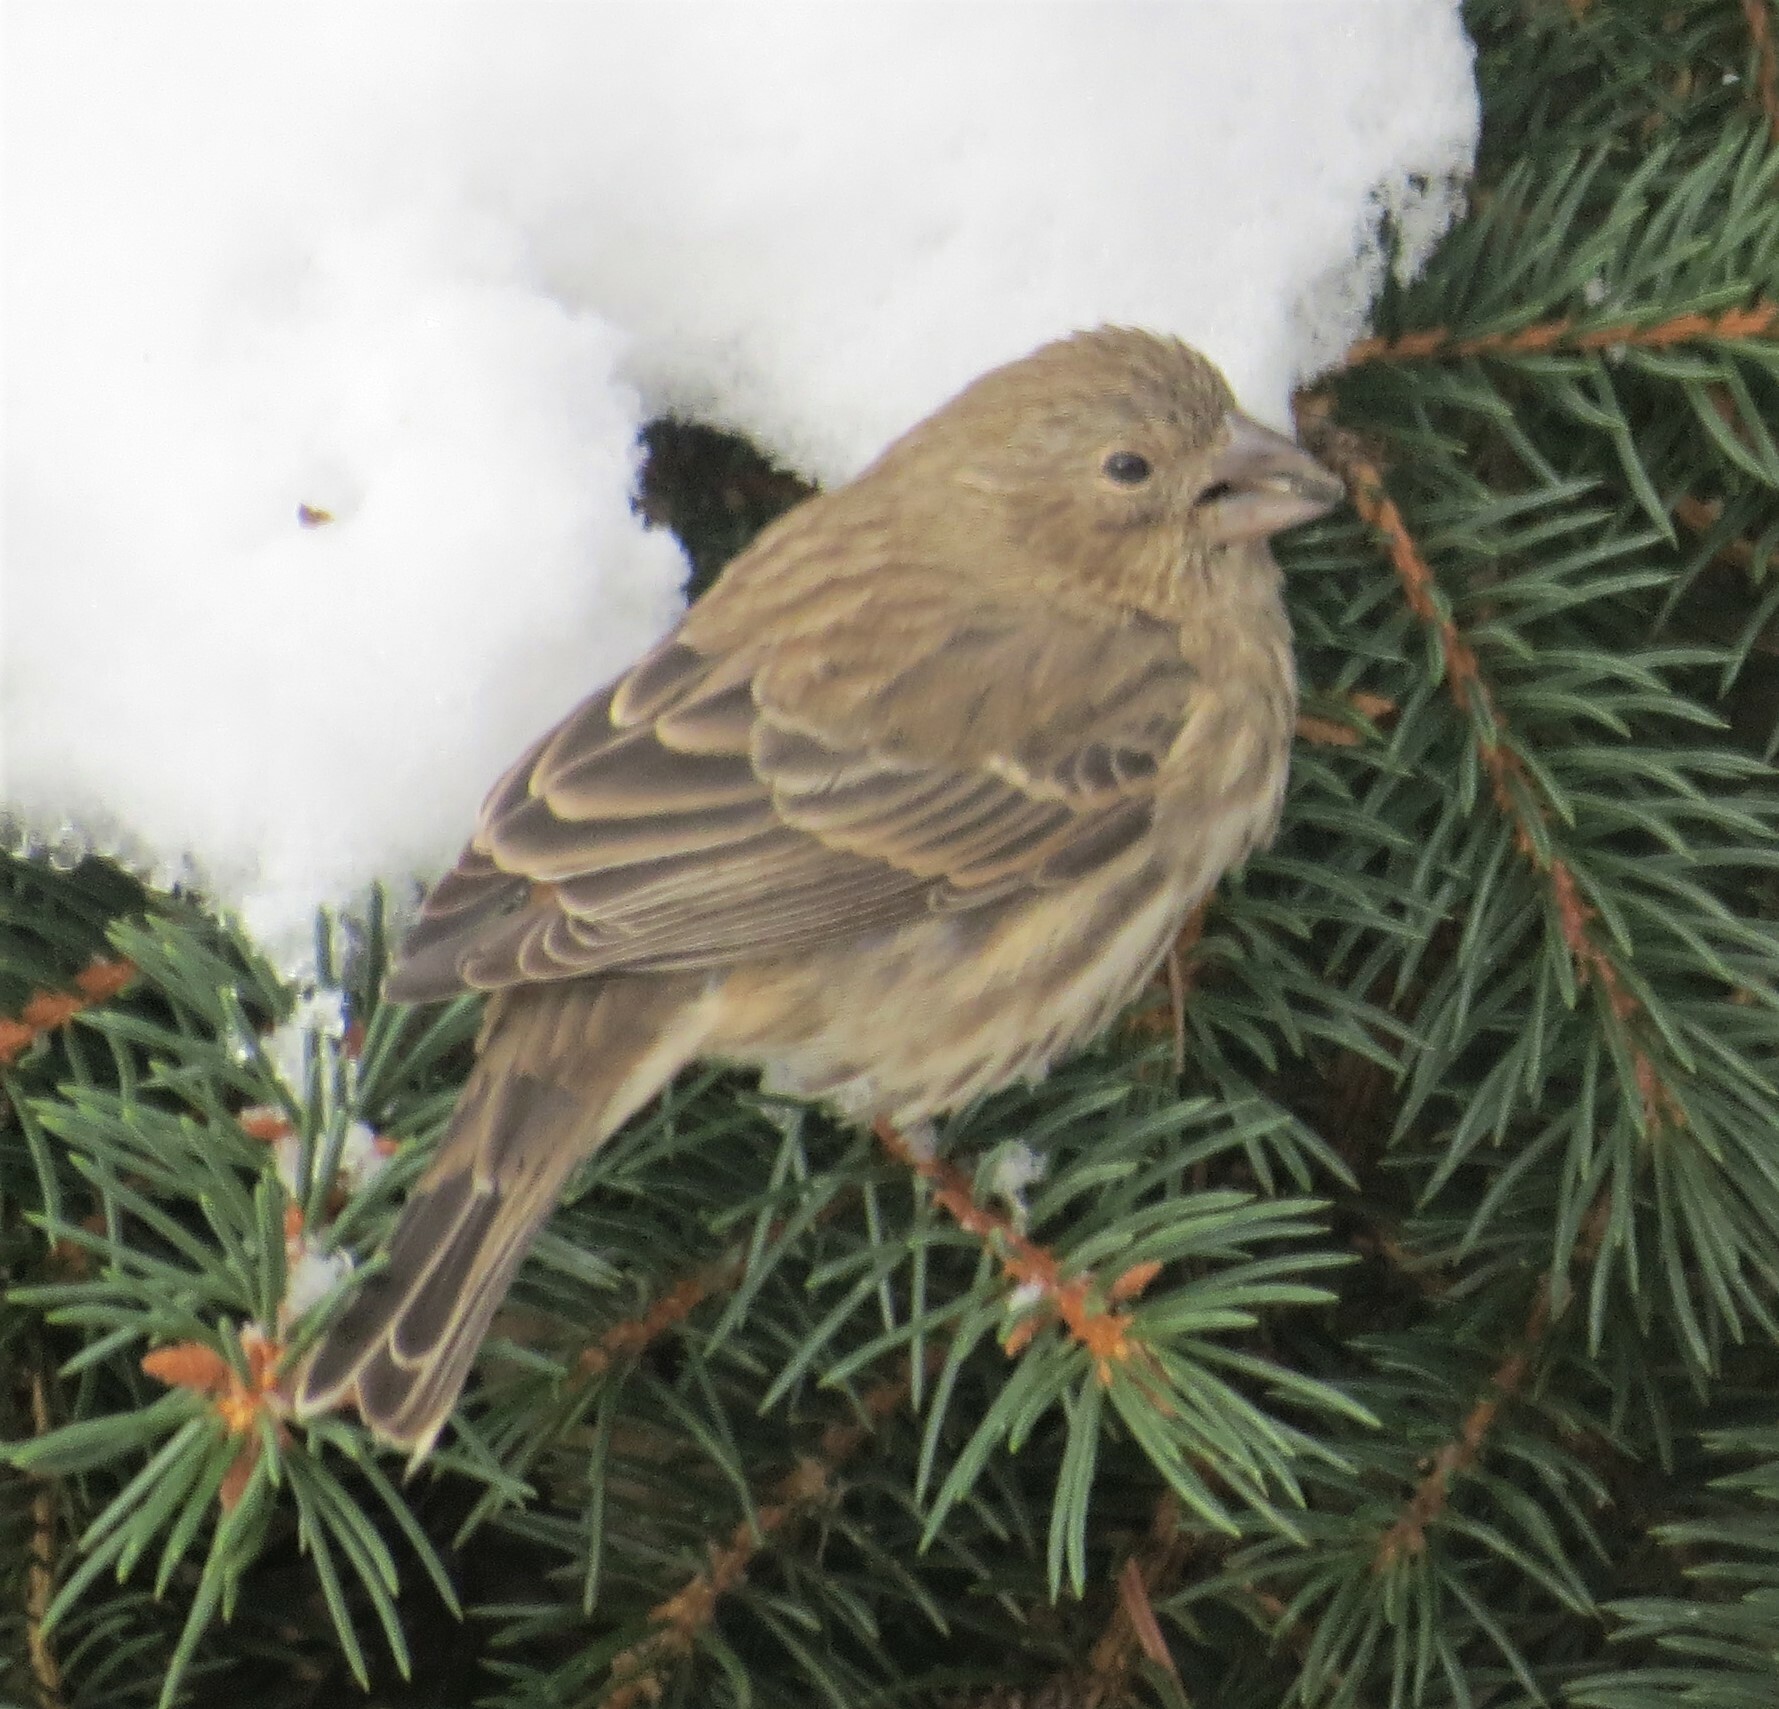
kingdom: Animalia
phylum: Chordata
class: Aves
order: Passeriformes
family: Fringillidae
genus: Haemorhous
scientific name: Haemorhous mexicanus
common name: House finch
